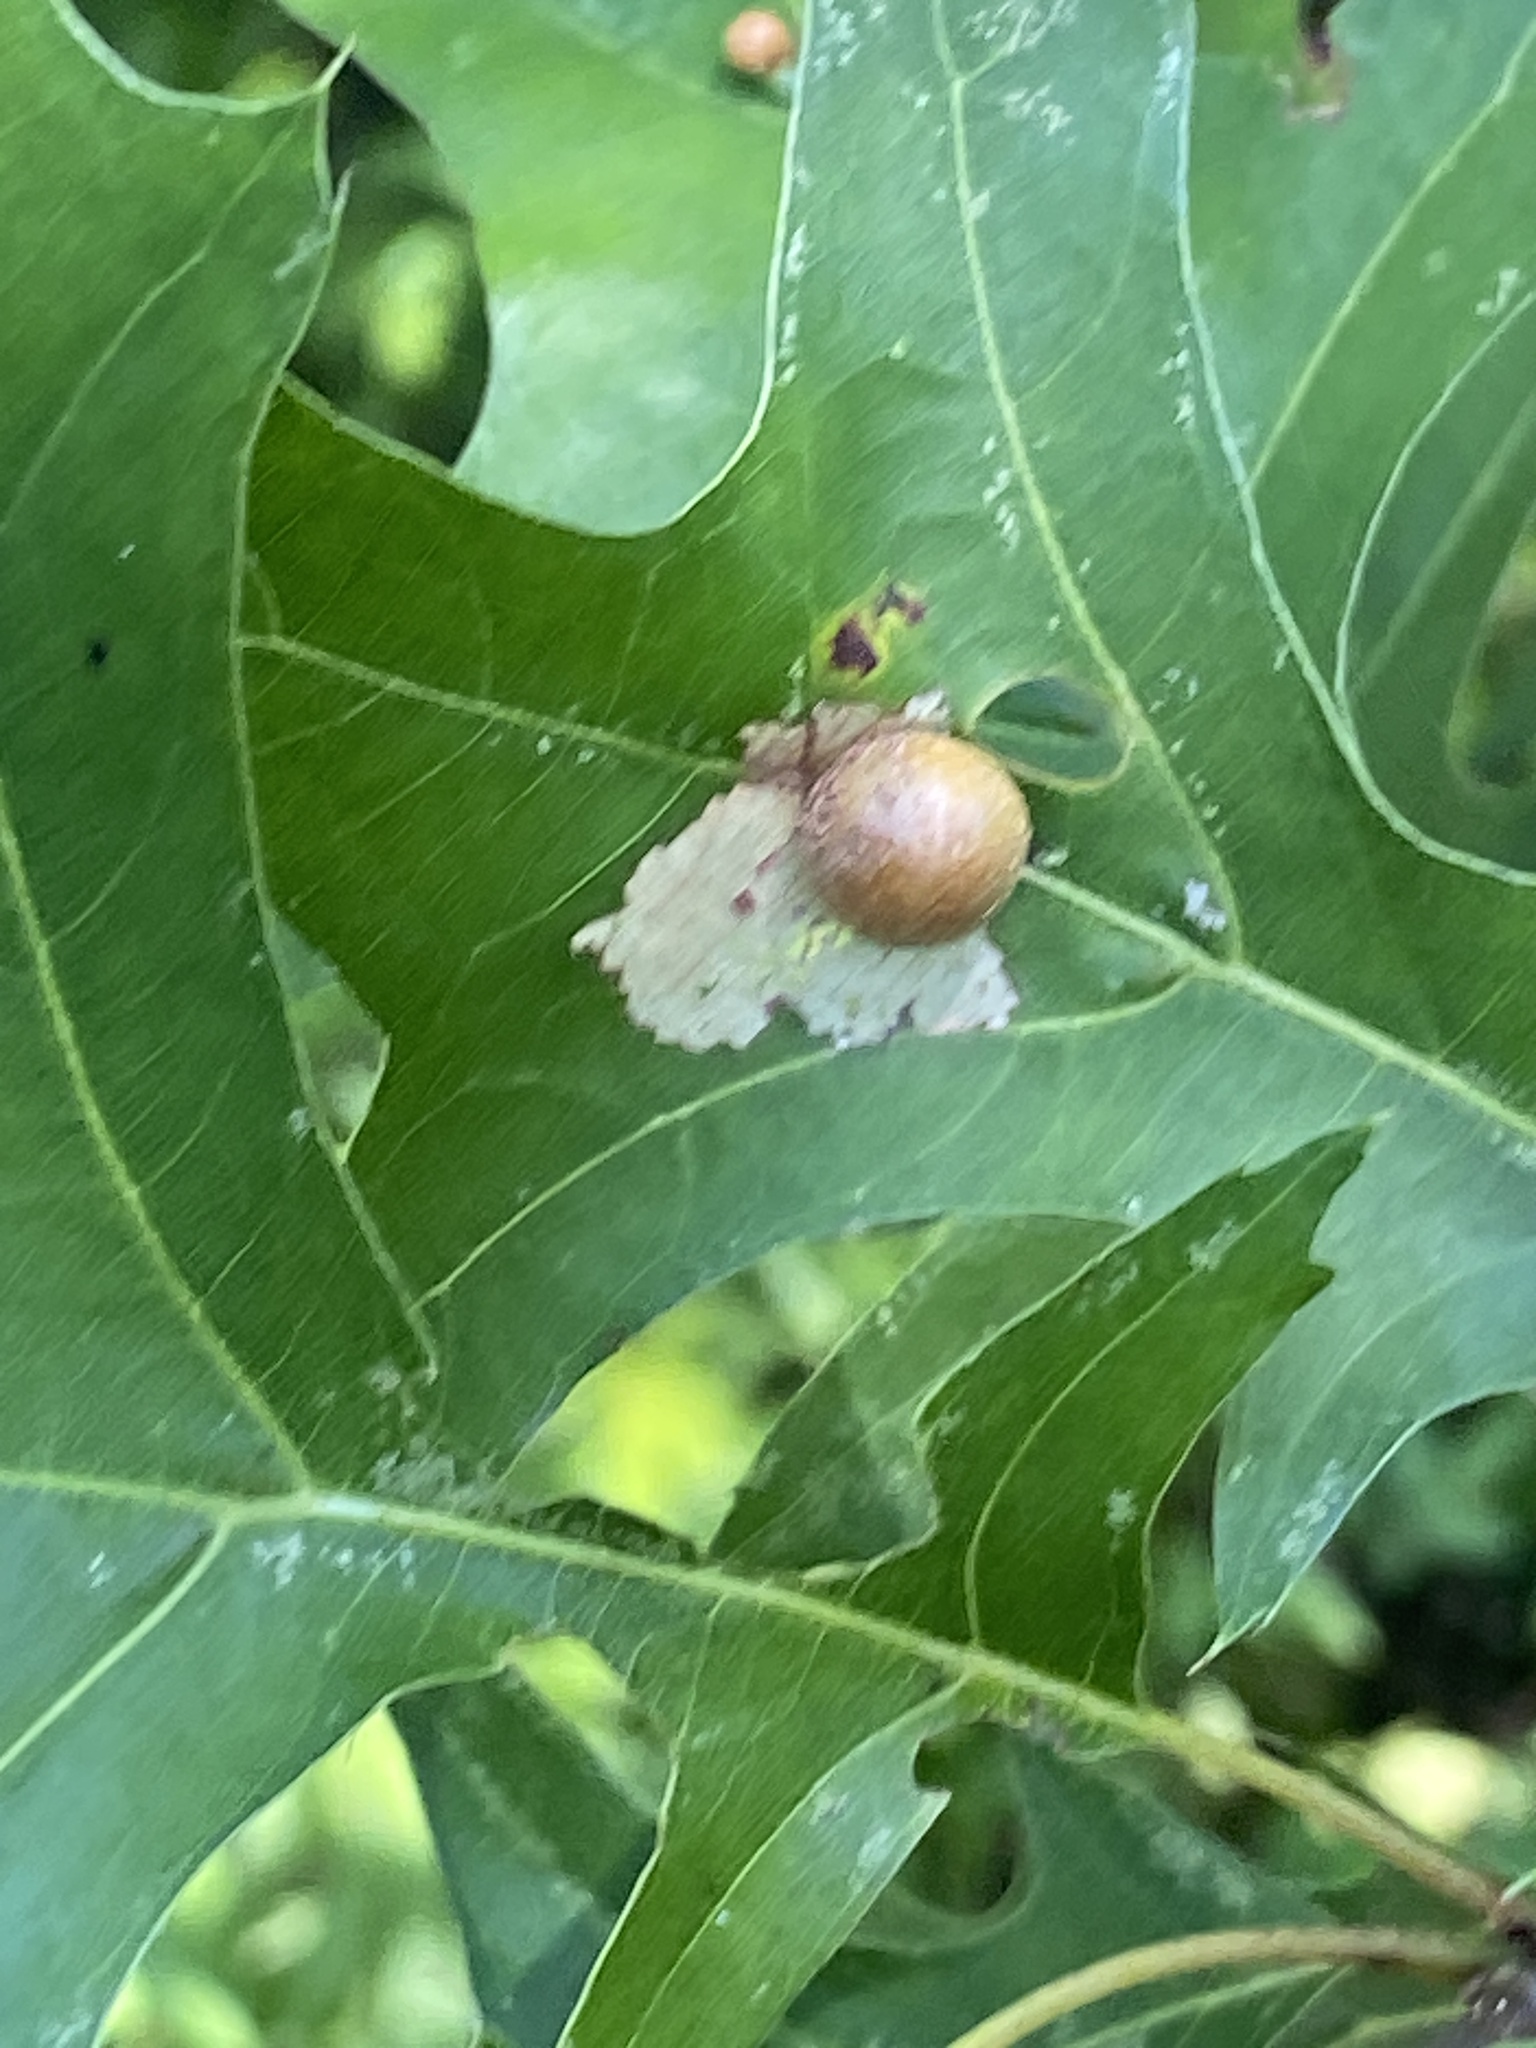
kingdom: Animalia
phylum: Arthropoda
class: Insecta
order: Diptera
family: Cecidomyiidae
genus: Polystepha
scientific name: Polystepha pilulae
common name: Oak leaf gall midge
